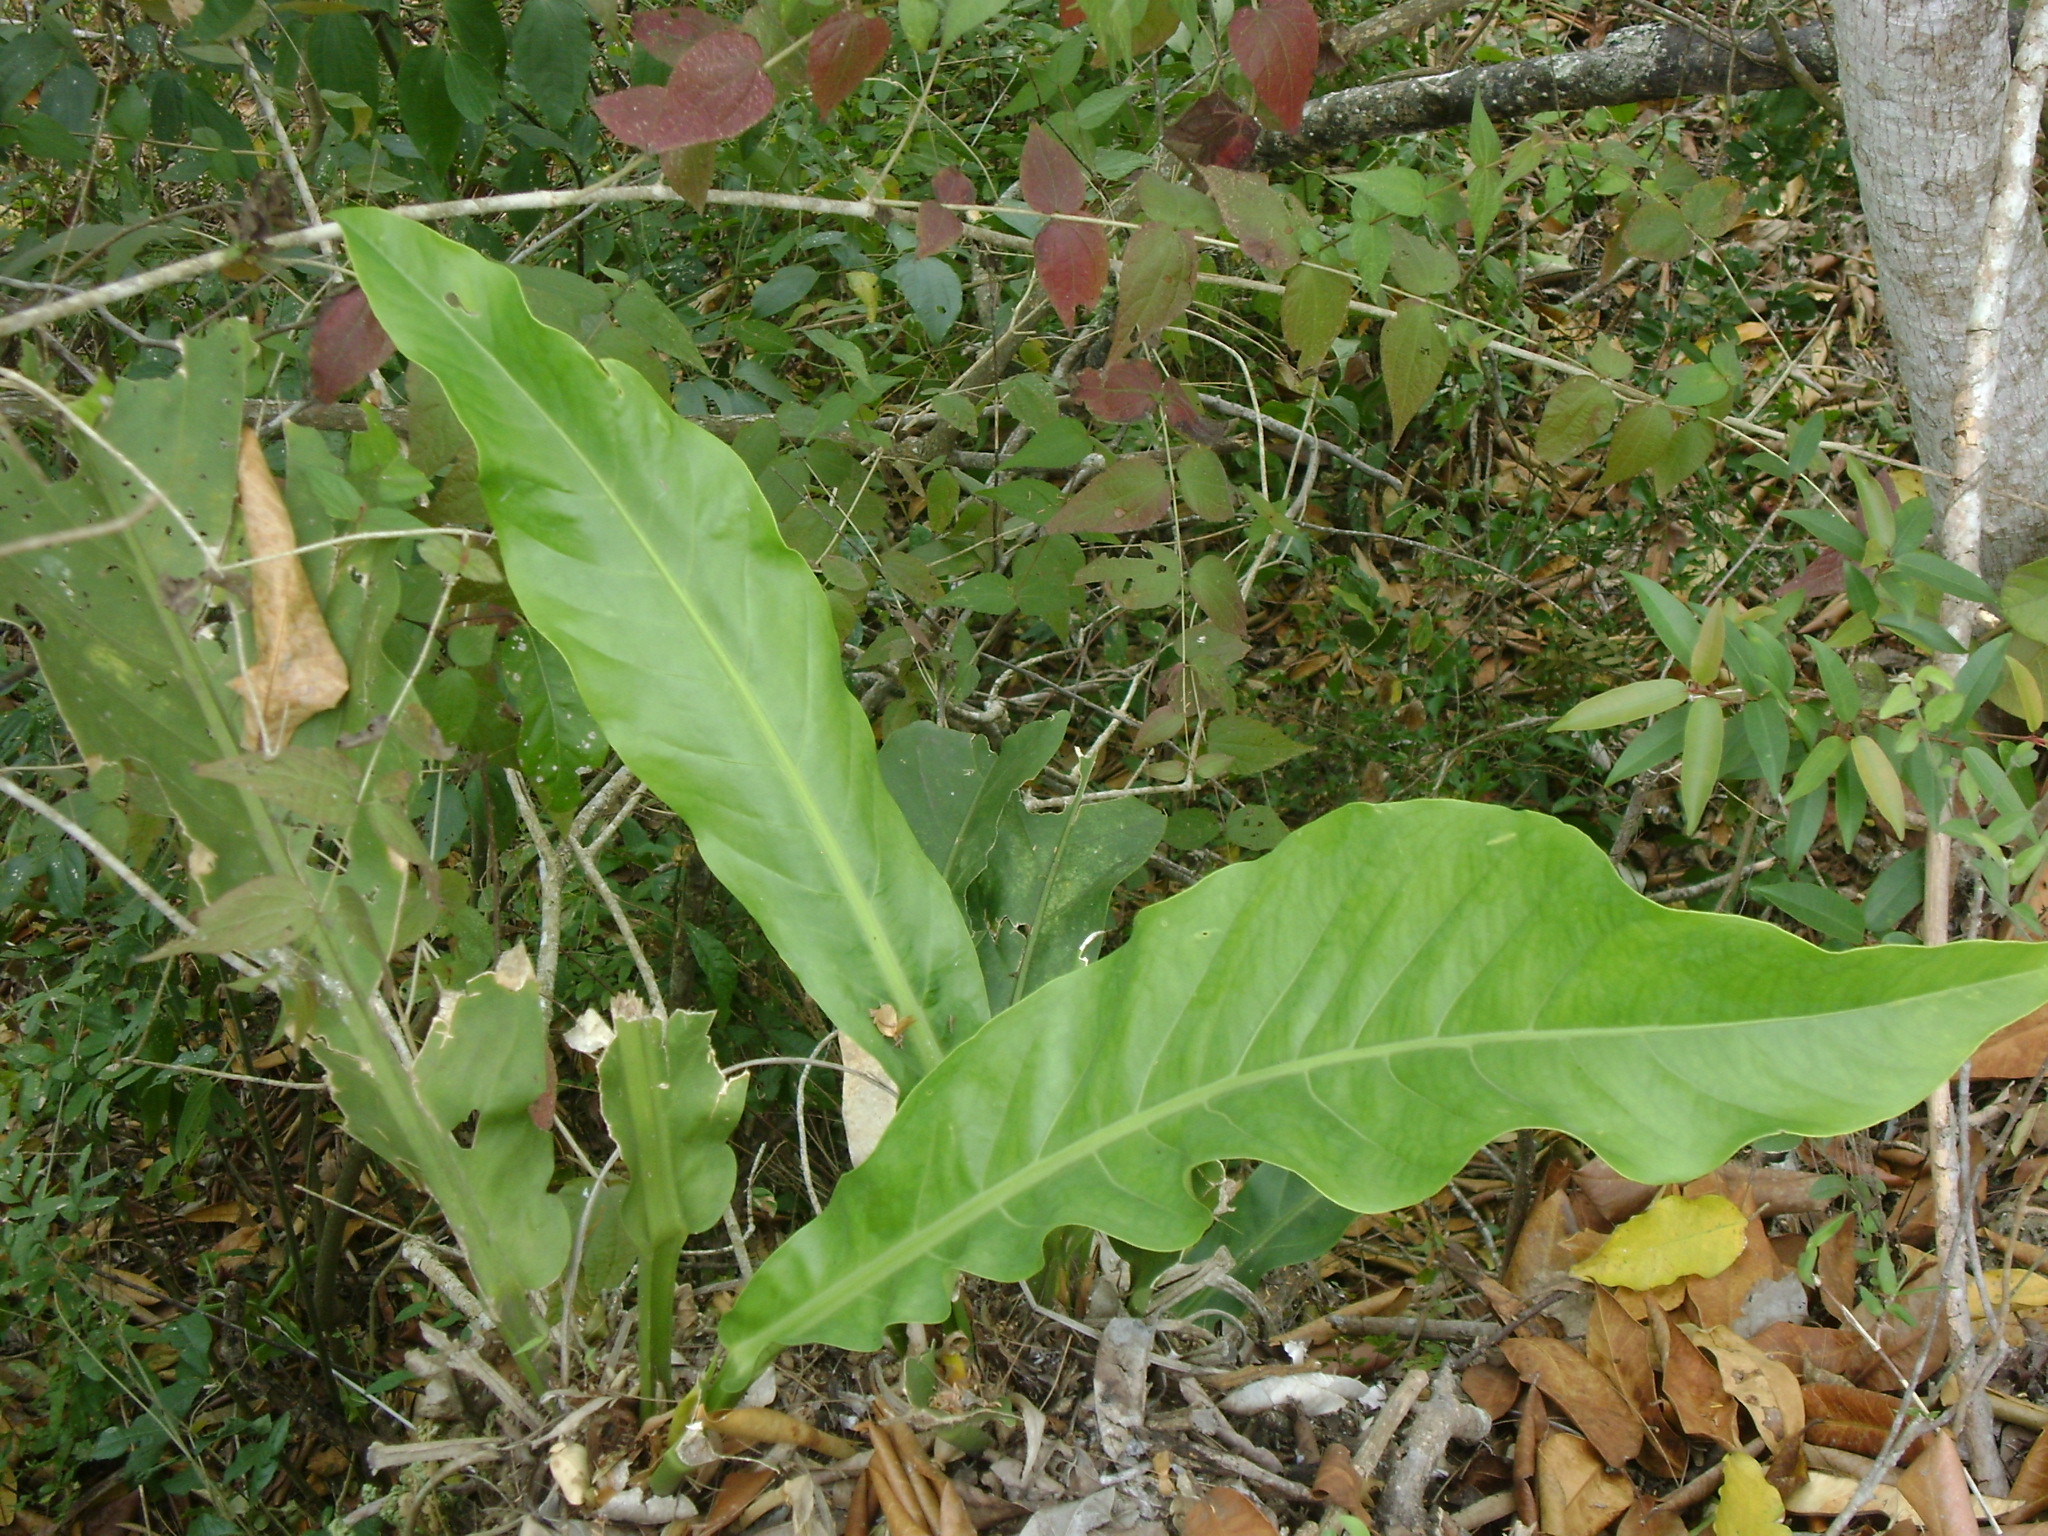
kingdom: Plantae
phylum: Tracheophyta
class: Liliopsida
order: Alismatales
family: Araceae
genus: Anthurium
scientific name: Anthurium schlechtendalii
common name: Laceleaf
